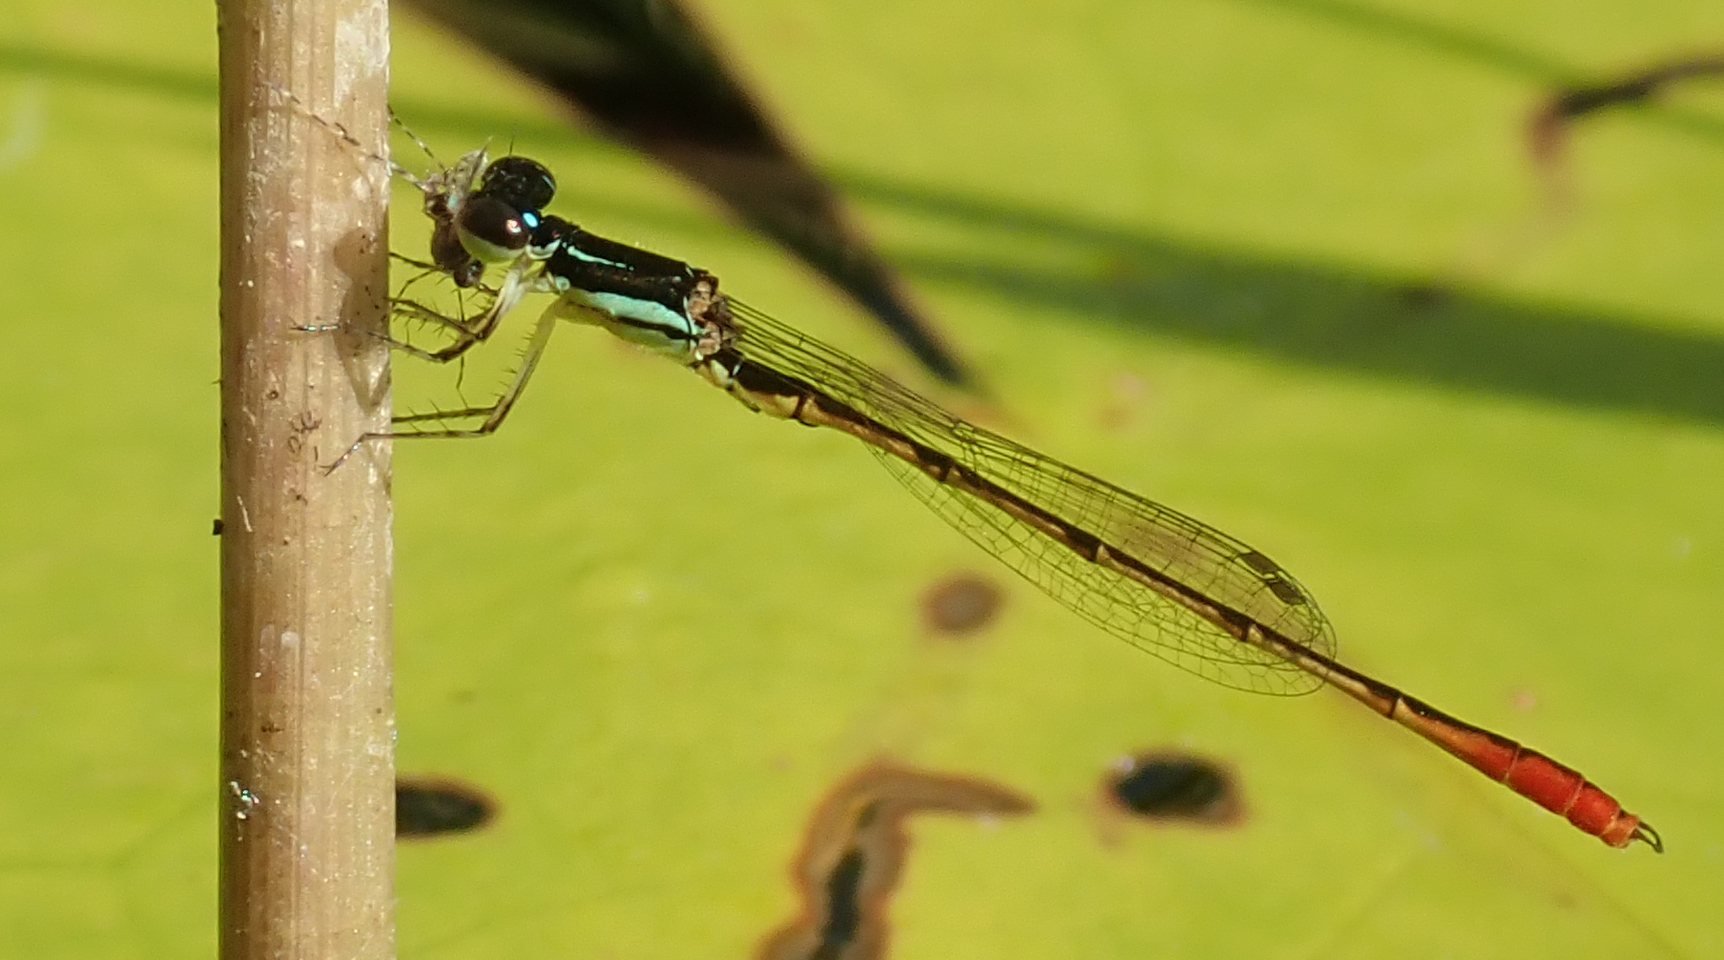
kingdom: Animalia
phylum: Arthropoda
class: Insecta
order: Odonata
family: Coenagrionidae
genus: Agriocnemis
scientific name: Agriocnemis victoria
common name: Lesser pincer-tailed wisp
